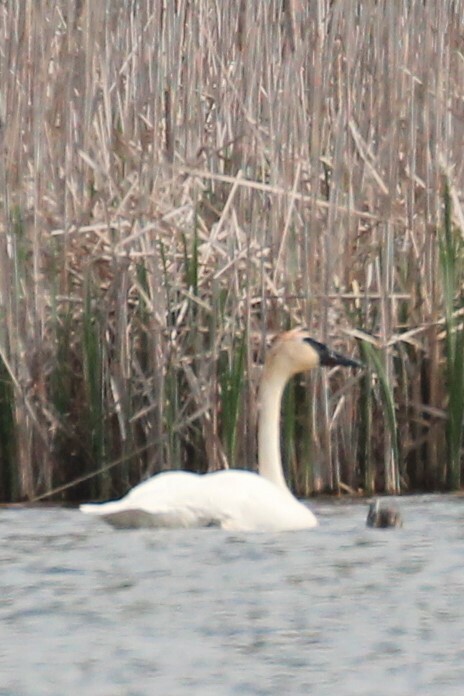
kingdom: Animalia
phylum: Chordata
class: Aves
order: Anseriformes
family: Anatidae
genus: Cygnus
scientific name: Cygnus buccinator
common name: Trumpeter swan
